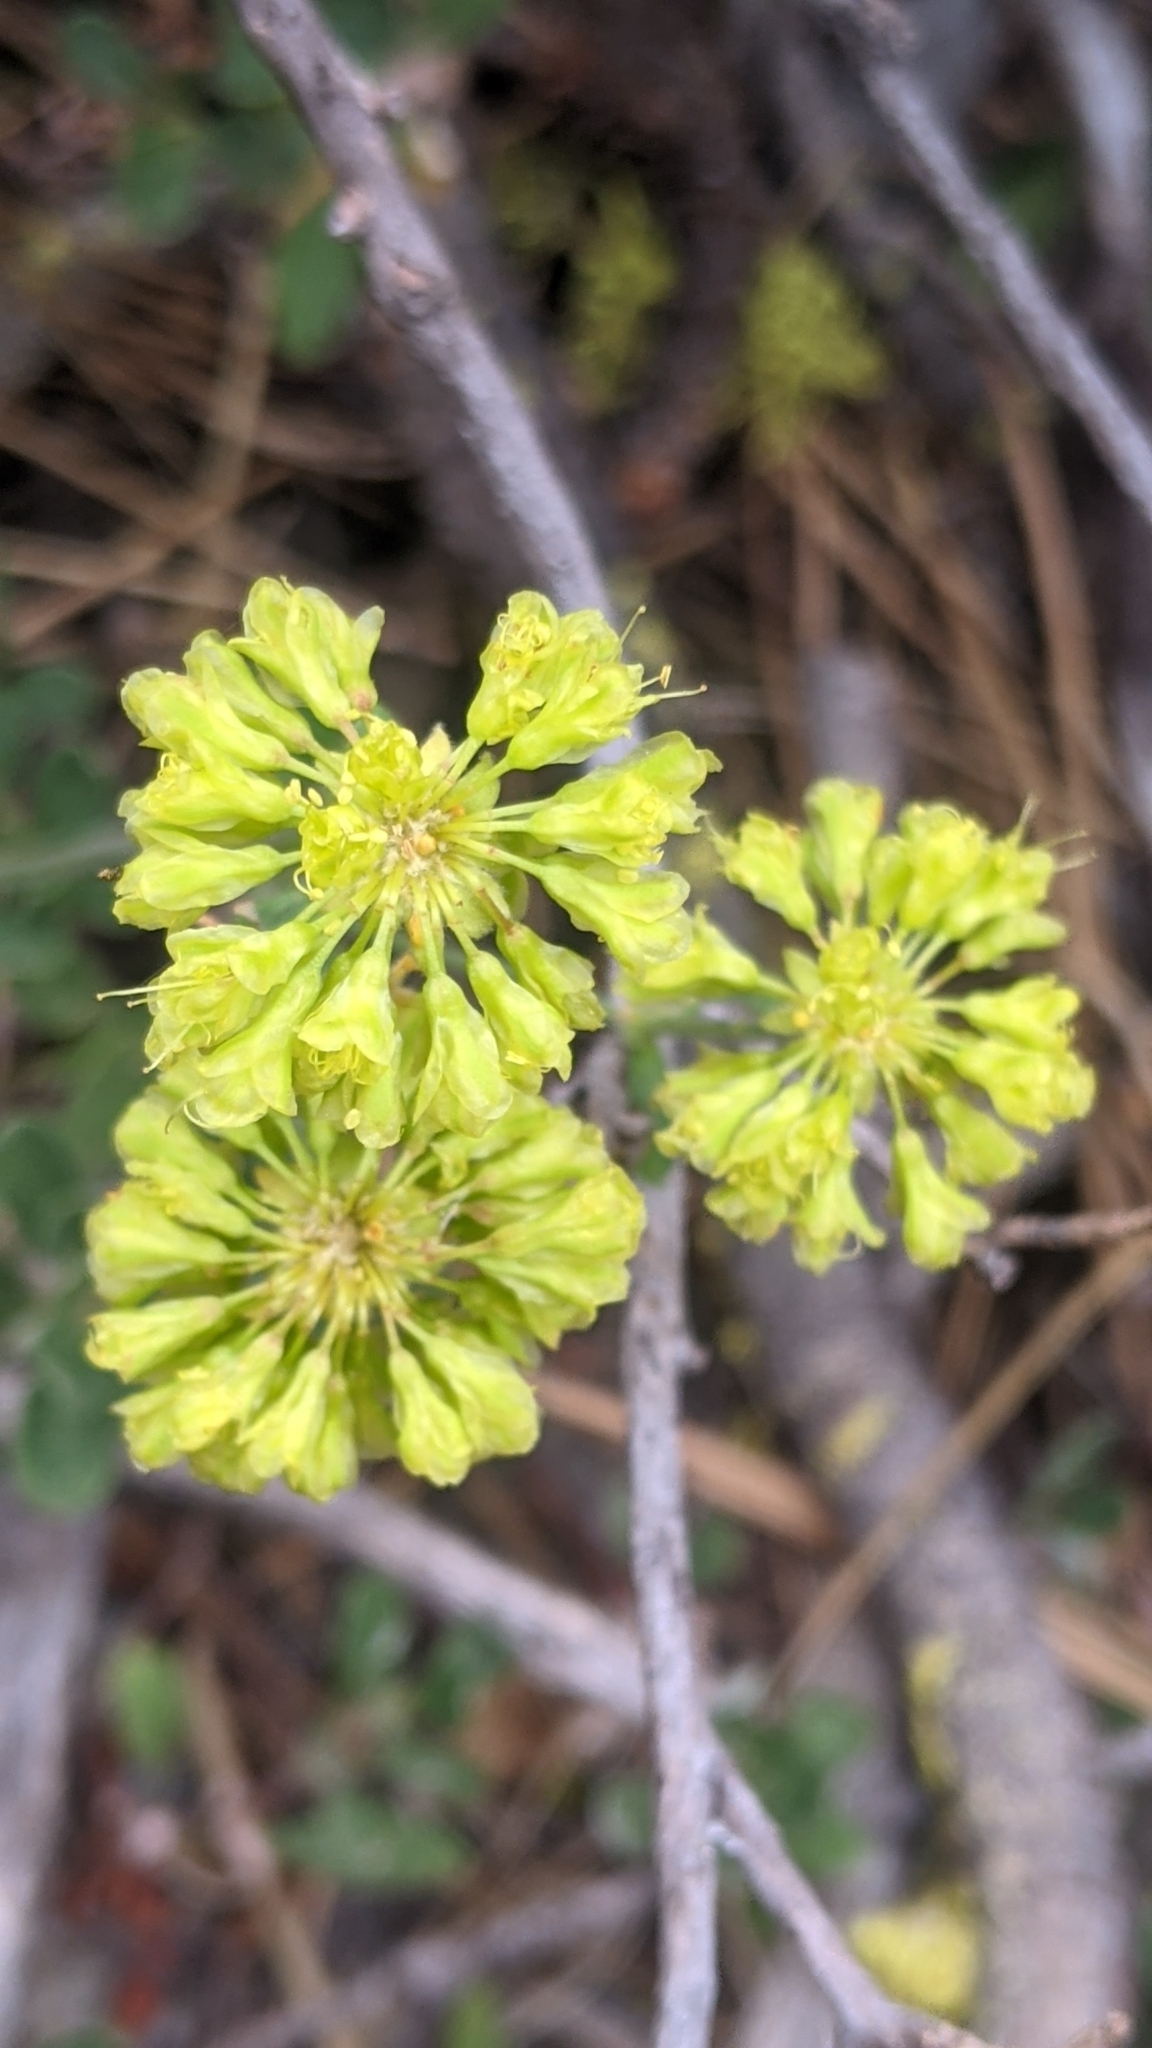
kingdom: Plantae
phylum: Tracheophyta
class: Magnoliopsida
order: Caryophyllales
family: Polygonaceae
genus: Eriogonum
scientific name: Eriogonum umbellatum
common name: Sulfur-buckwheat
